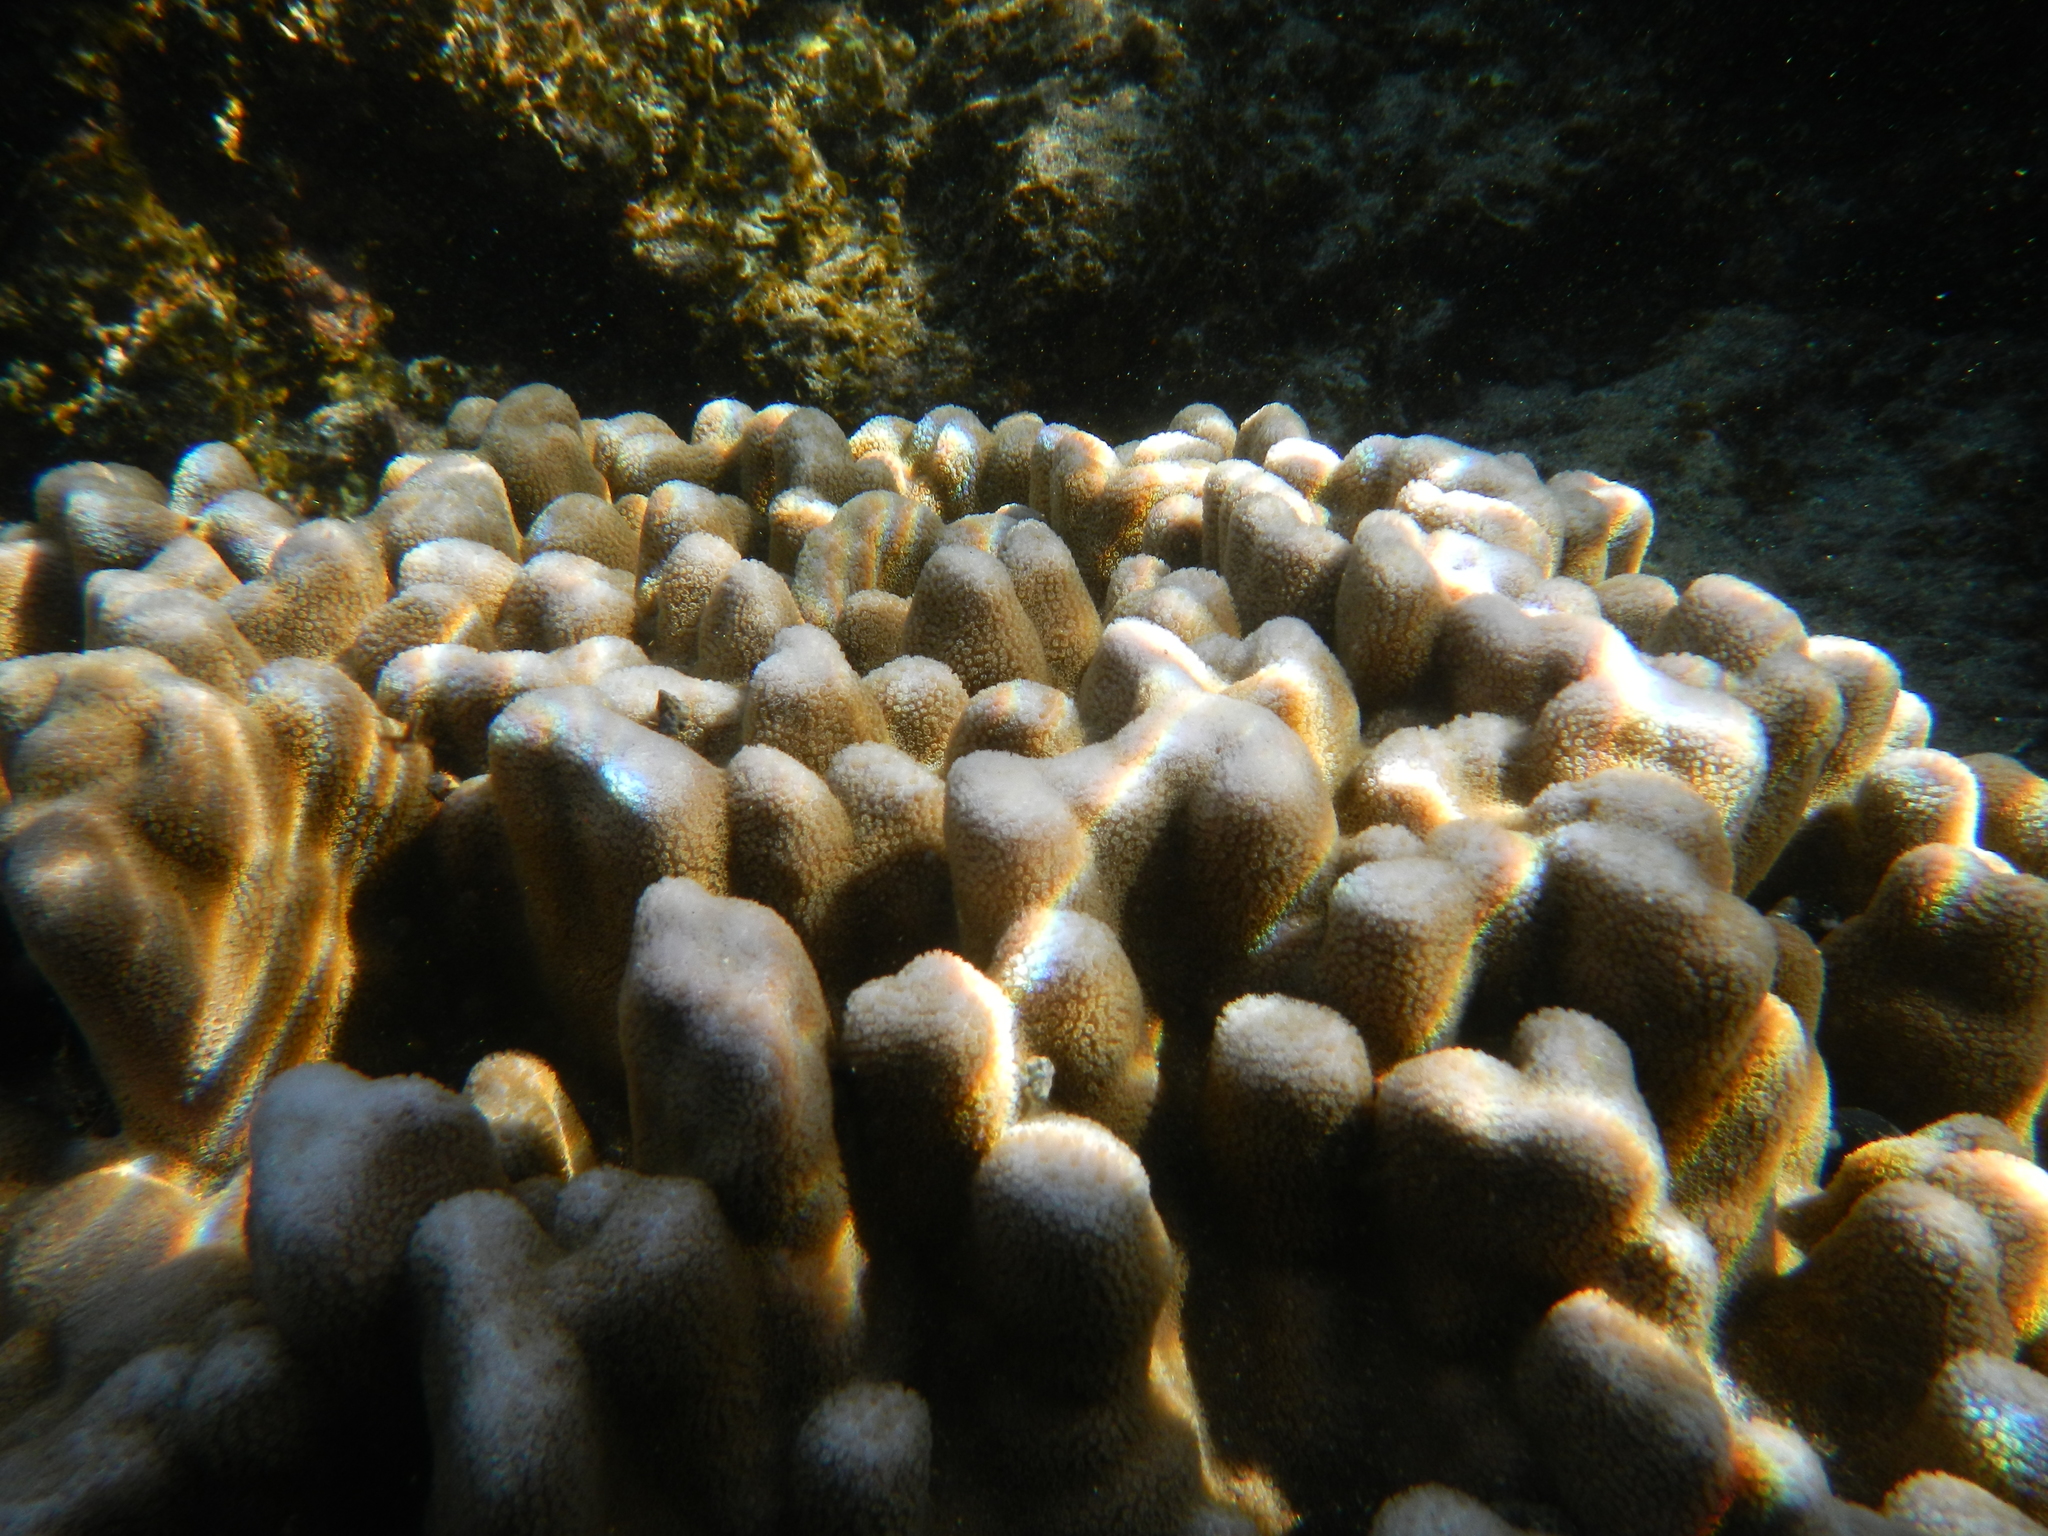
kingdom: Animalia
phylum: Cnidaria
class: Anthozoa
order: Scleractinia
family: Poritidae
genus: Porites
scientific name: Porites lobata
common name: Hump coral
